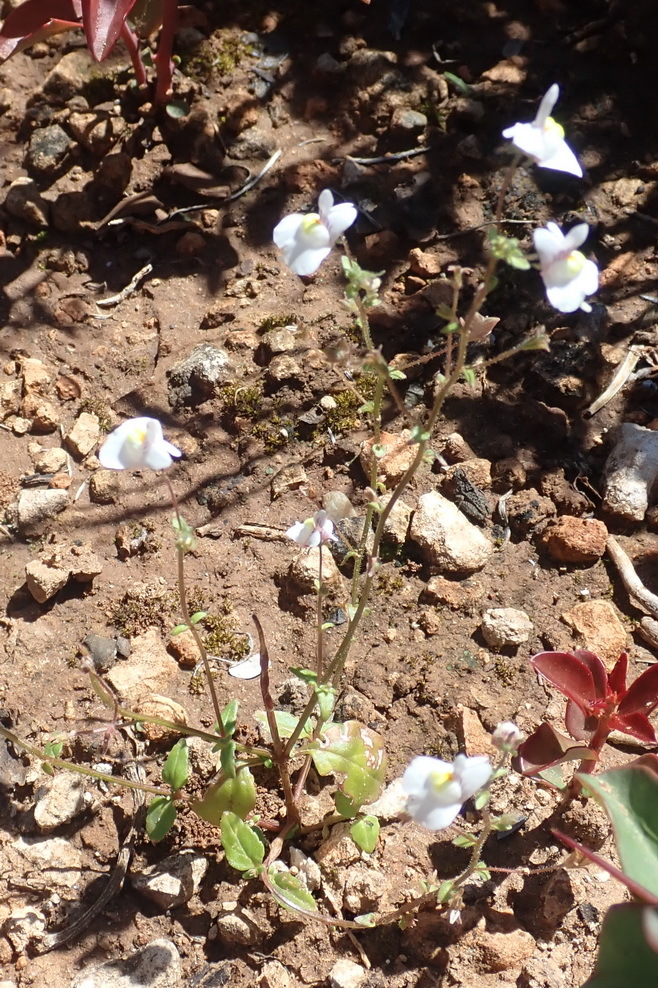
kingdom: Plantae
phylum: Tracheophyta
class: Magnoliopsida
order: Lamiales
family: Scrophulariaceae
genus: Nemesia
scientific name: Nemesia floribunda
